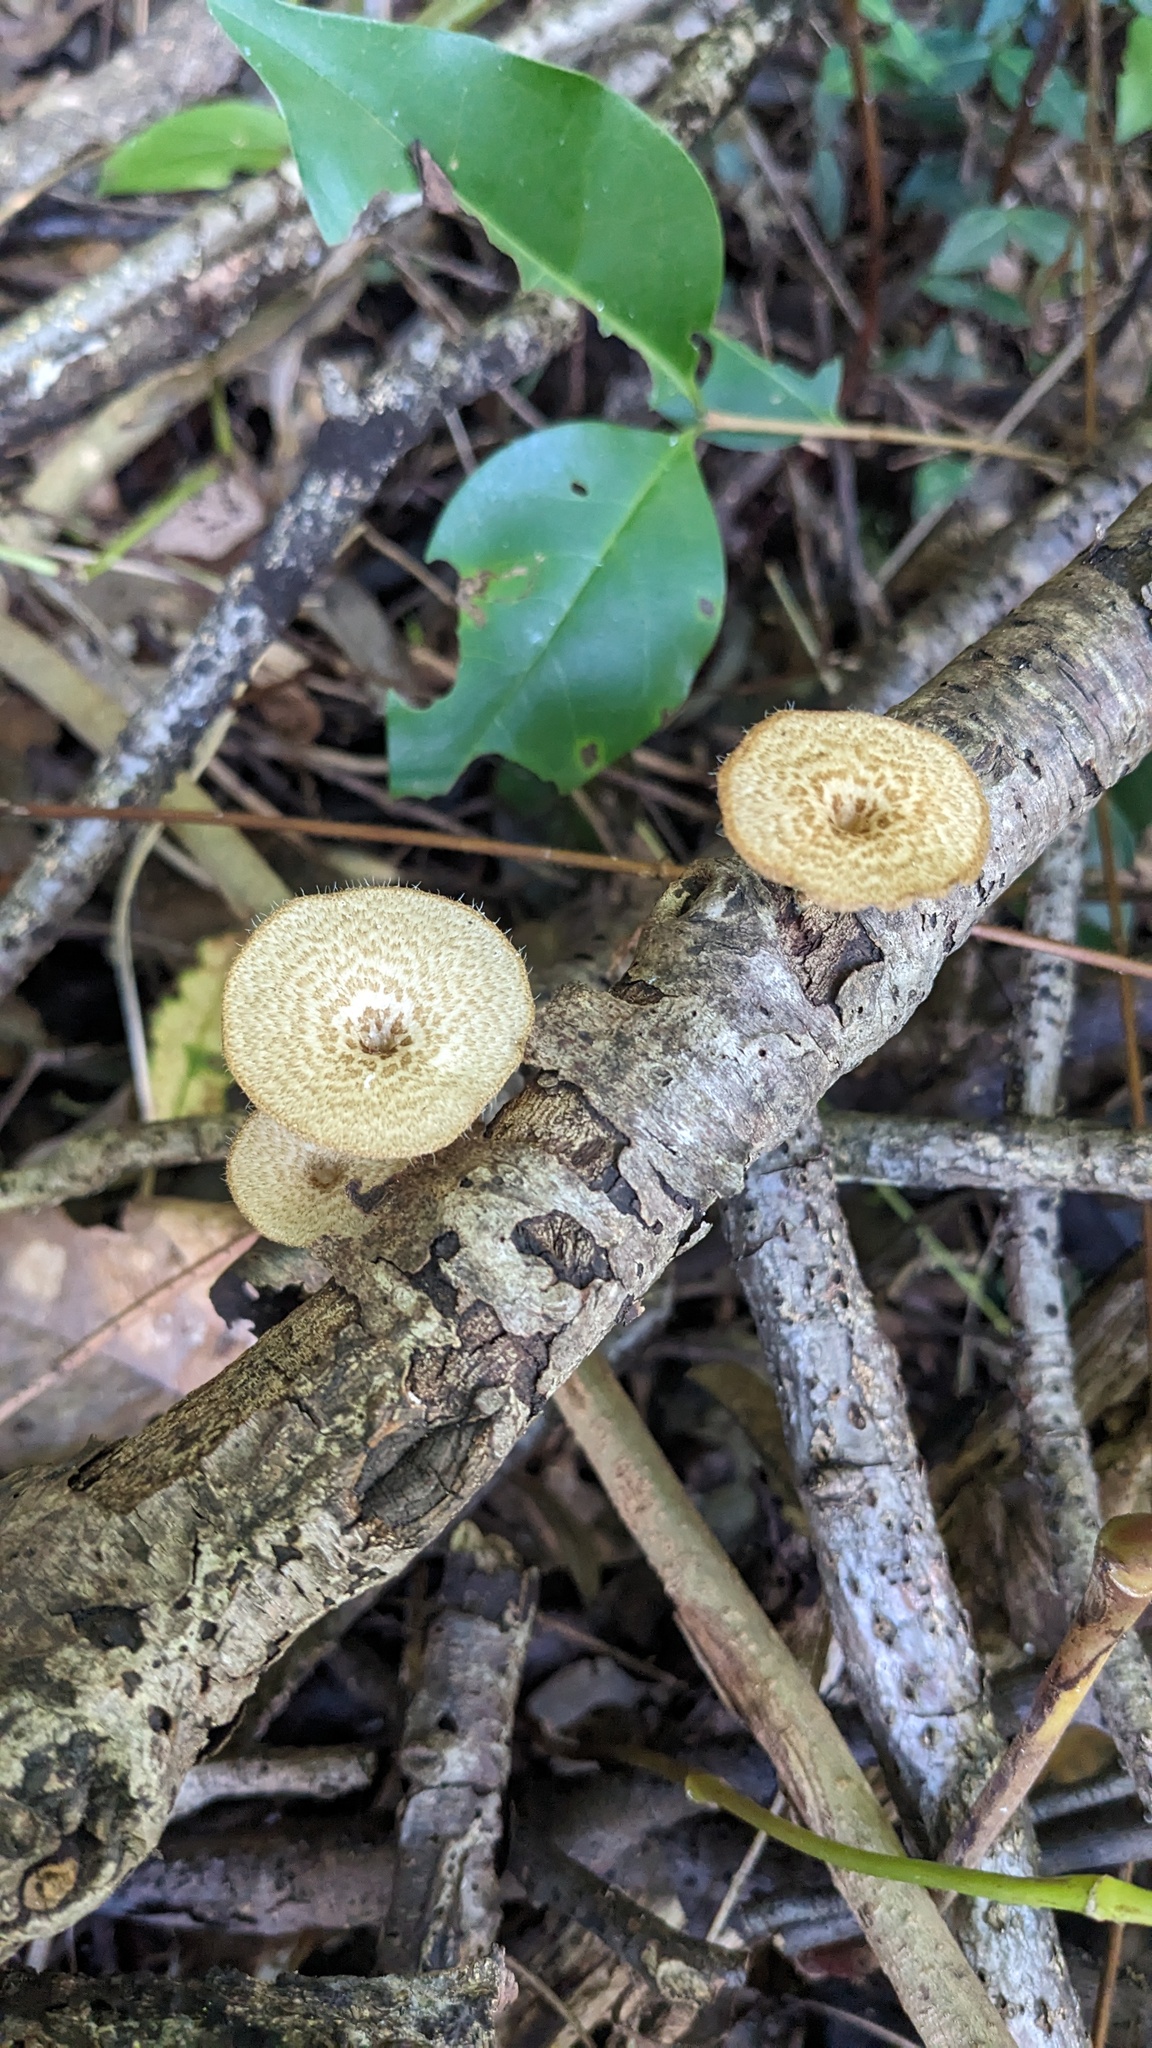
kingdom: Fungi
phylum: Basidiomycota
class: Agaricomycetes
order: Polyporales
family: Polyporaceae
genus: Lentinus
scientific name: Lentinus arcularius
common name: Spring polypore
